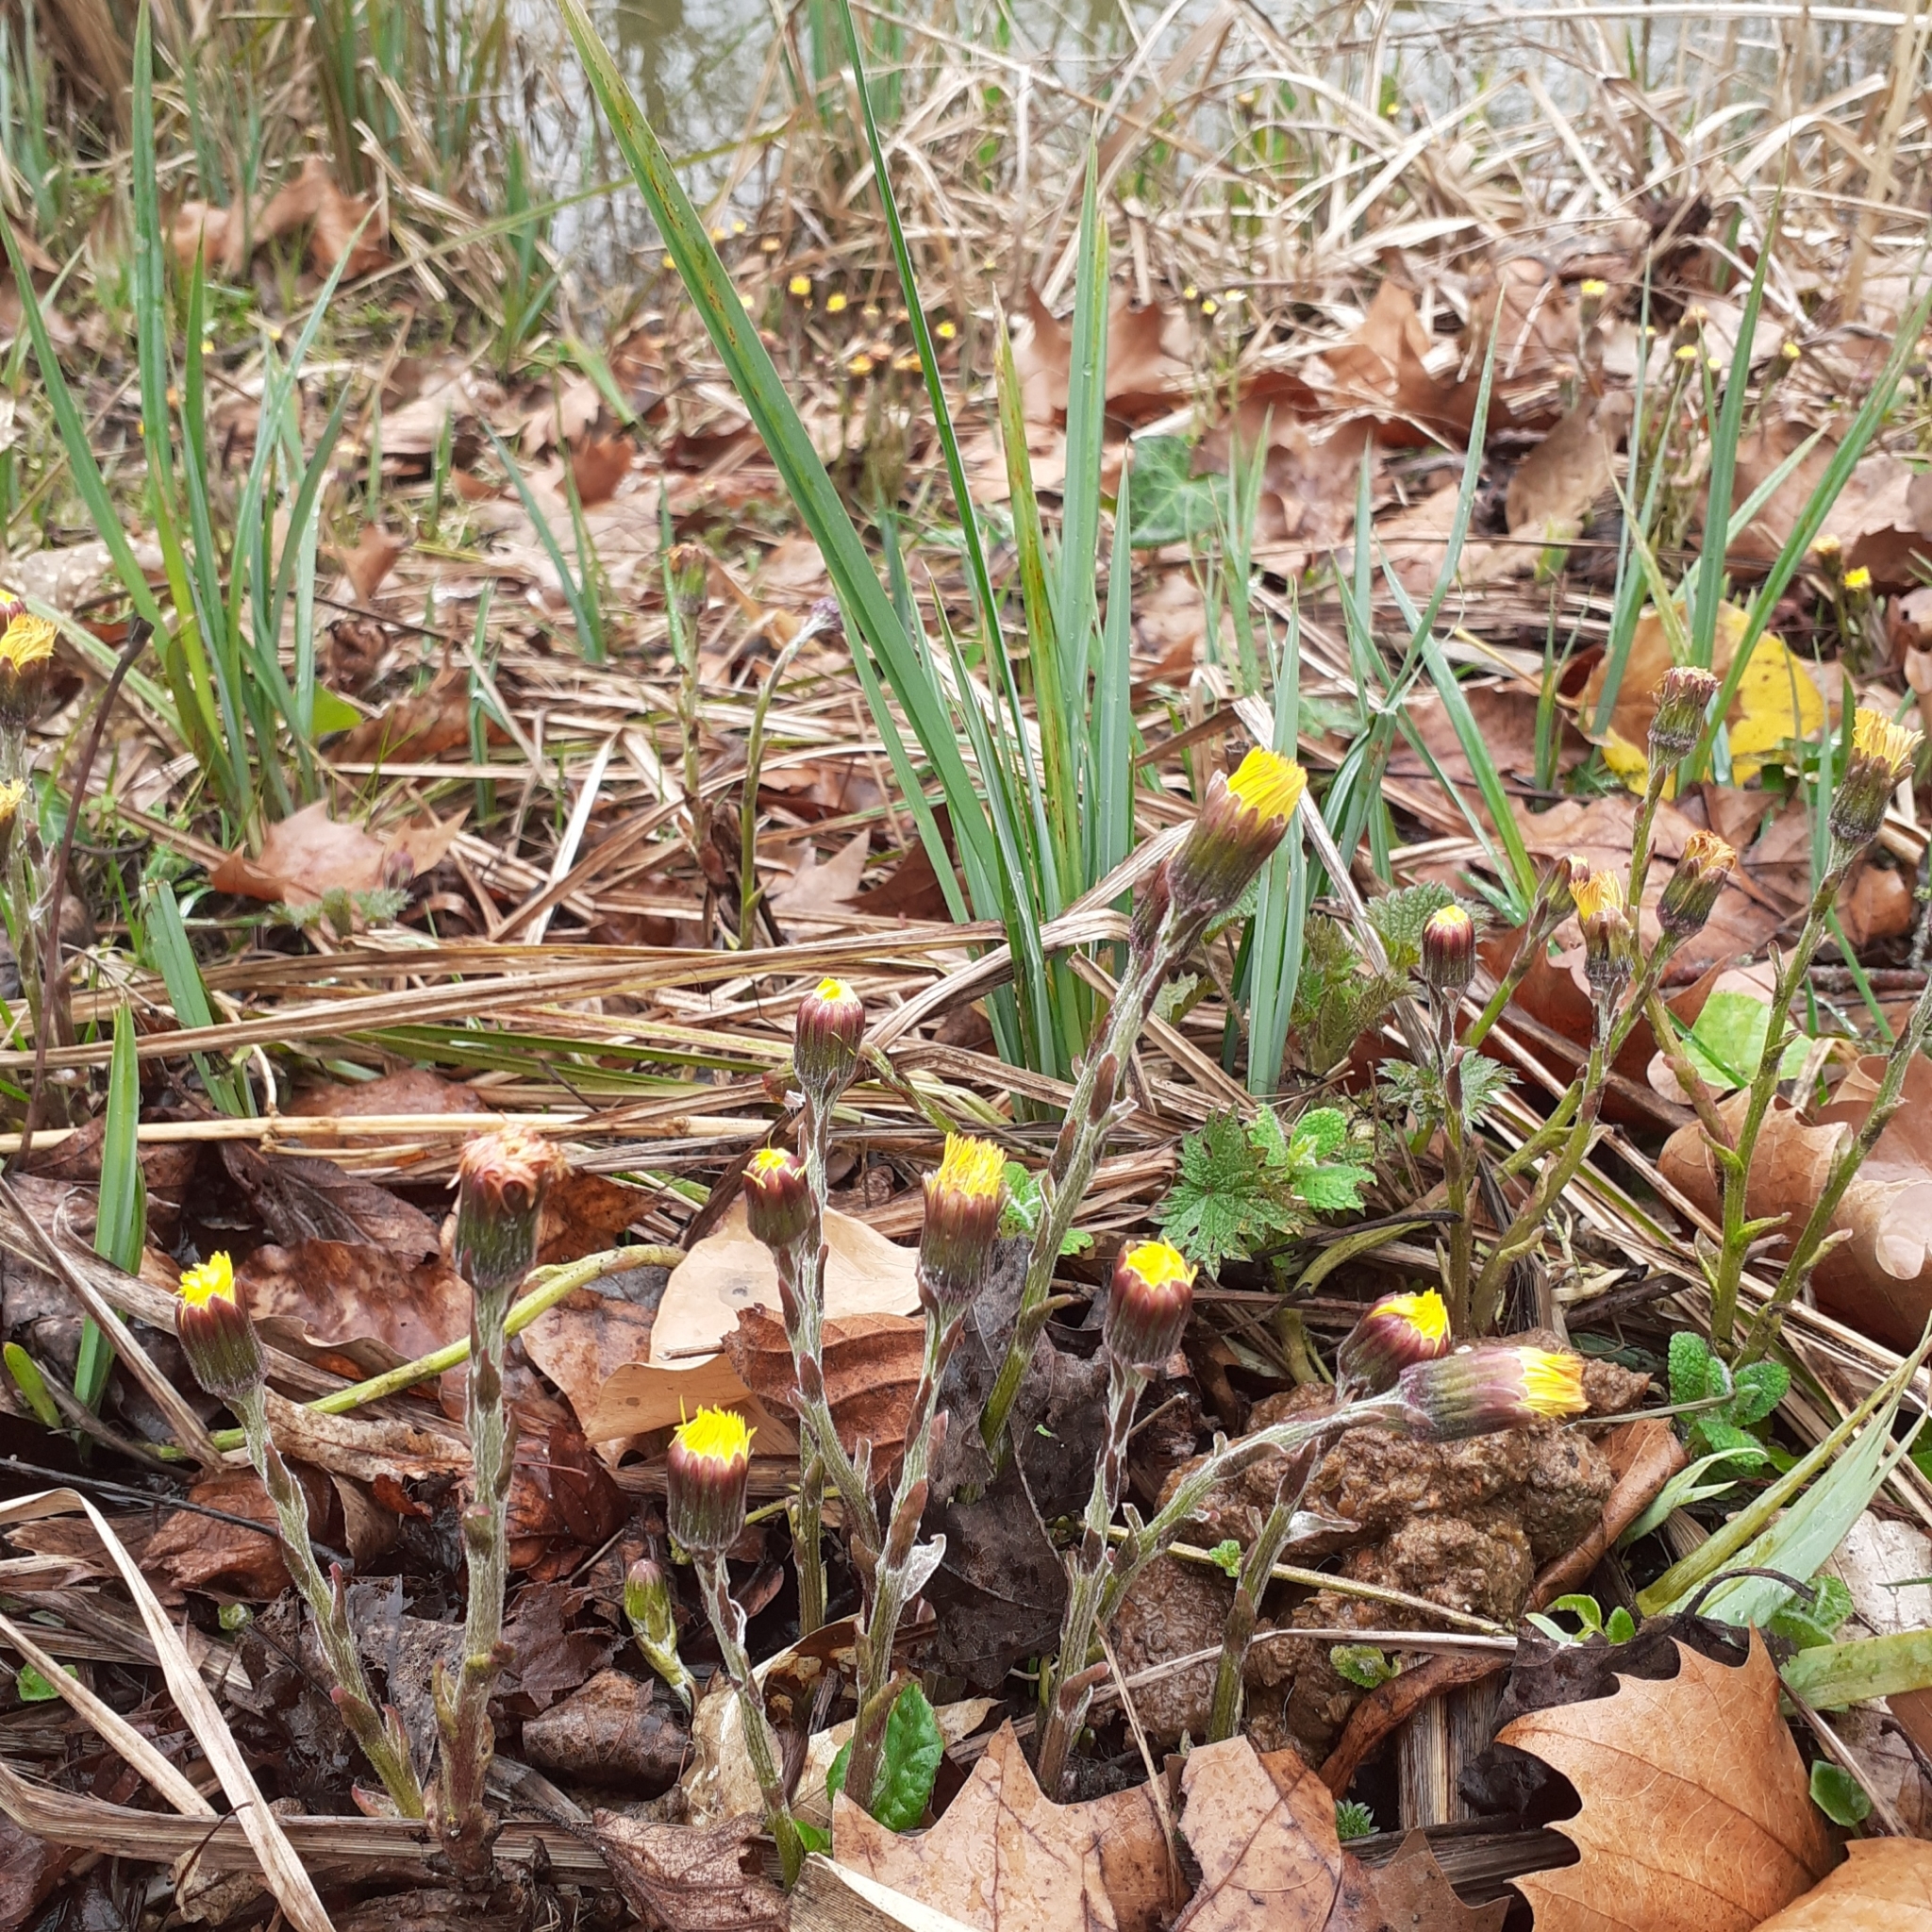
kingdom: Plantae
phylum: Tracheophyta
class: Magnoliopsida
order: Asterales
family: Asteraceae
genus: Tussilago
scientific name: Tussilago farfara
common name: Coltsfoot
